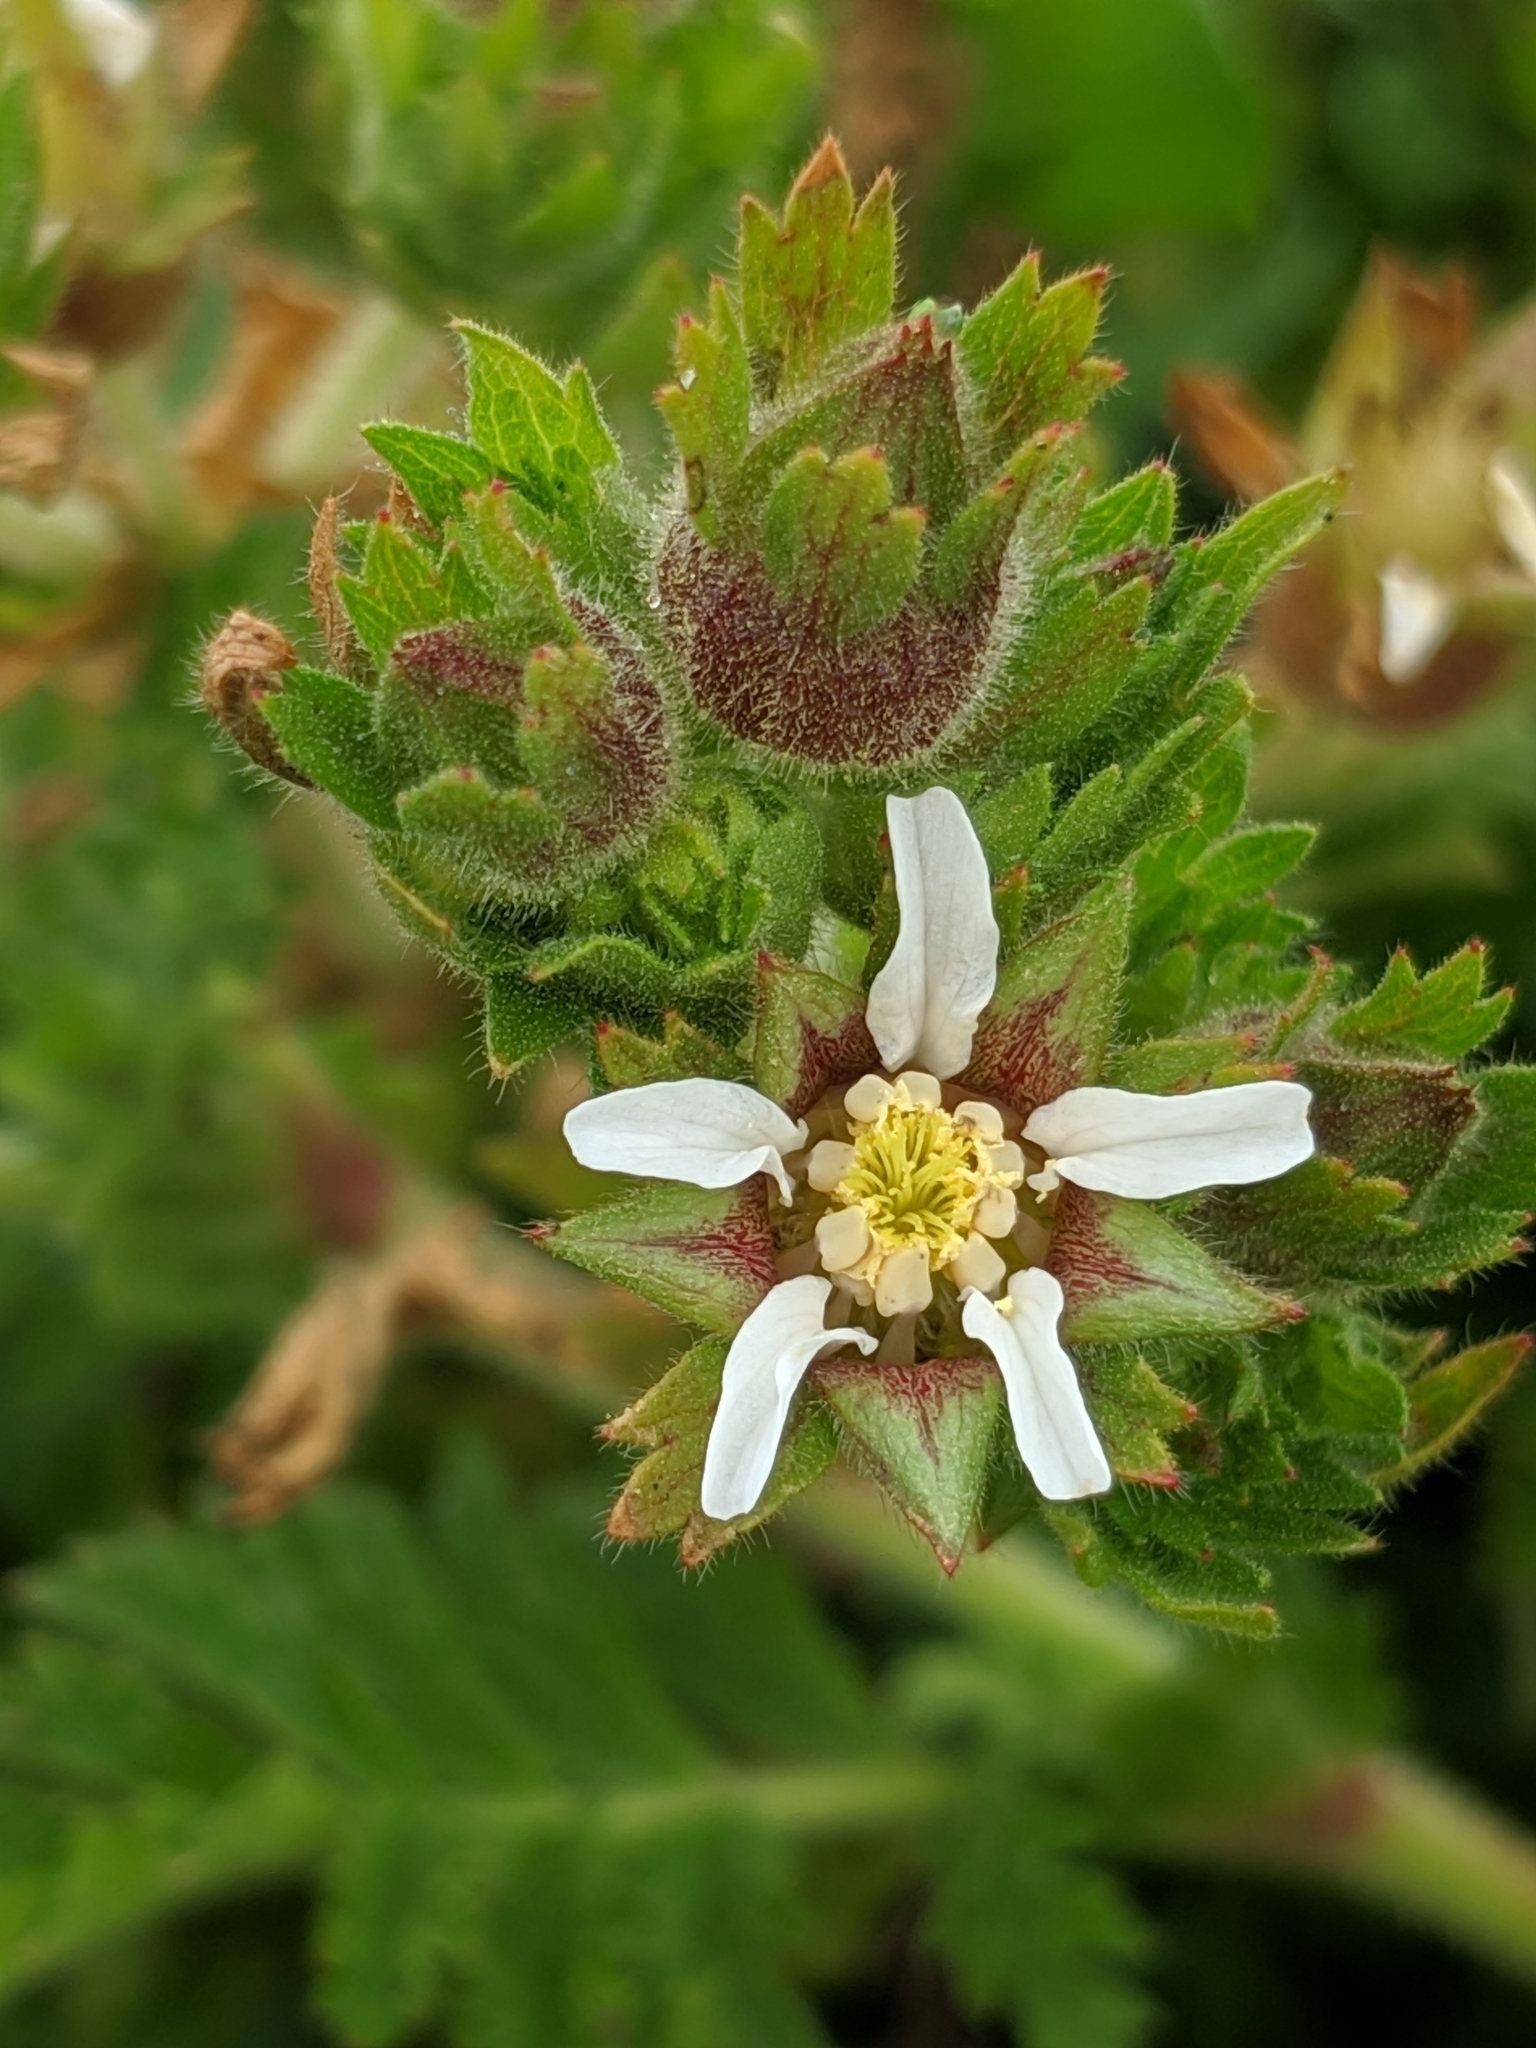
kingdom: Plantae
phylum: Tracheophyta
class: Magnoliopsida
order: Rosales
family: Rosaceae
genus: Potentilla
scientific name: Potentilla californica
